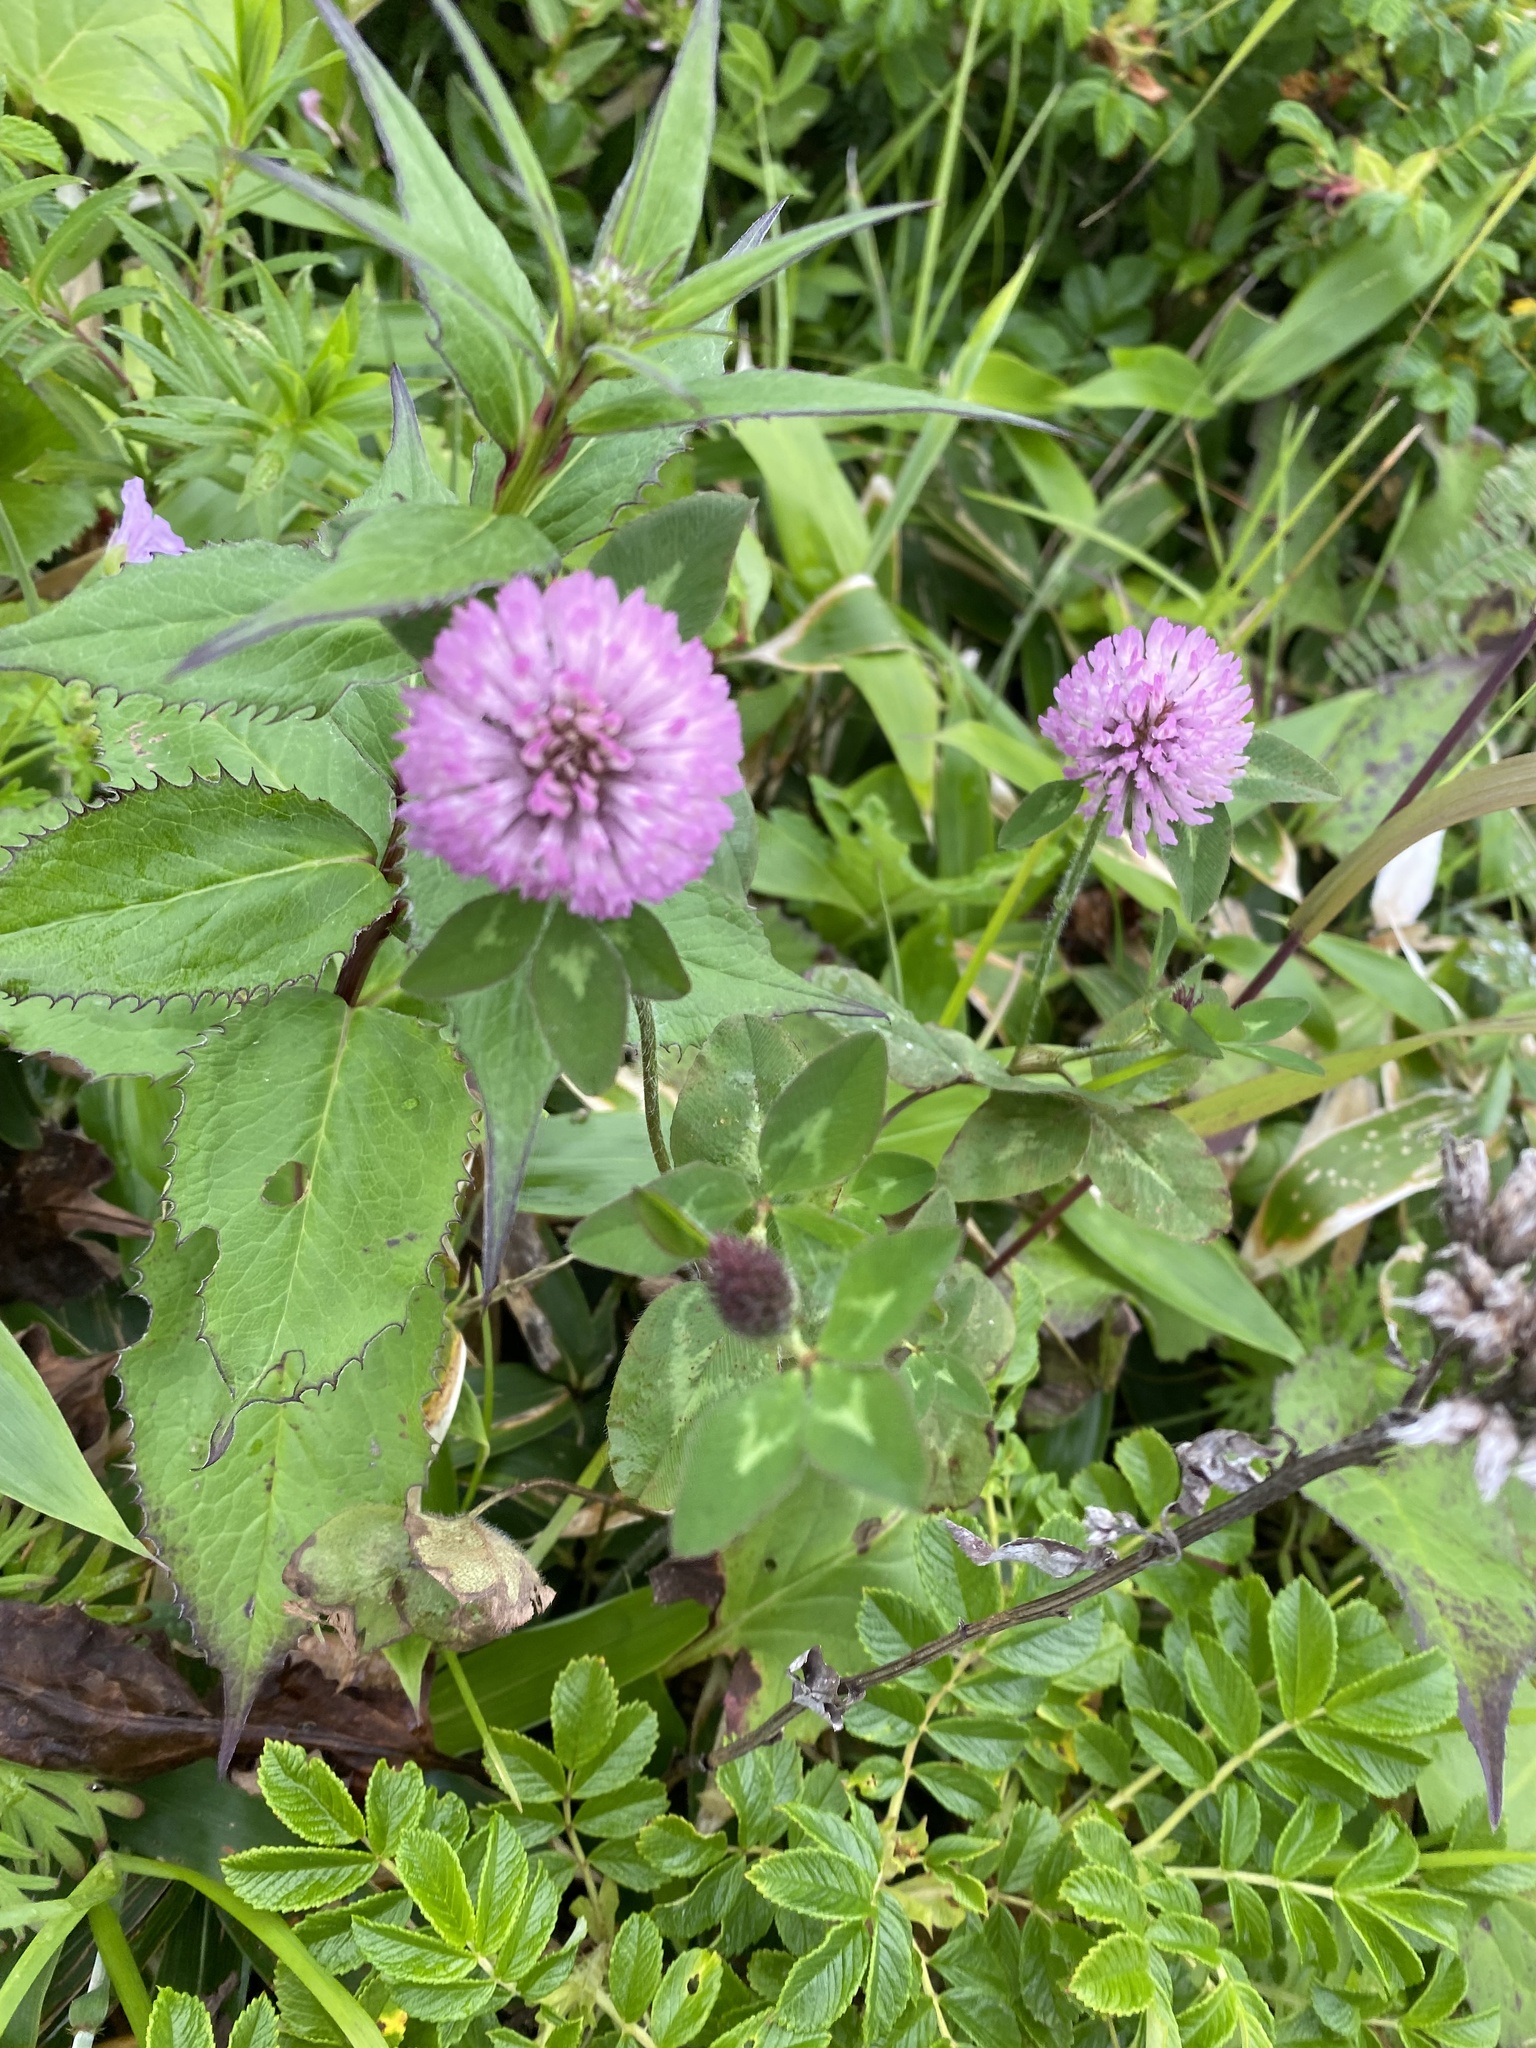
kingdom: Plantae
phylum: Tracheophyta
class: Magnoliopsida
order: Fabales
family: Fabaceae
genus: Trifolium
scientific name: Trifolium pratense
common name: Red clover
